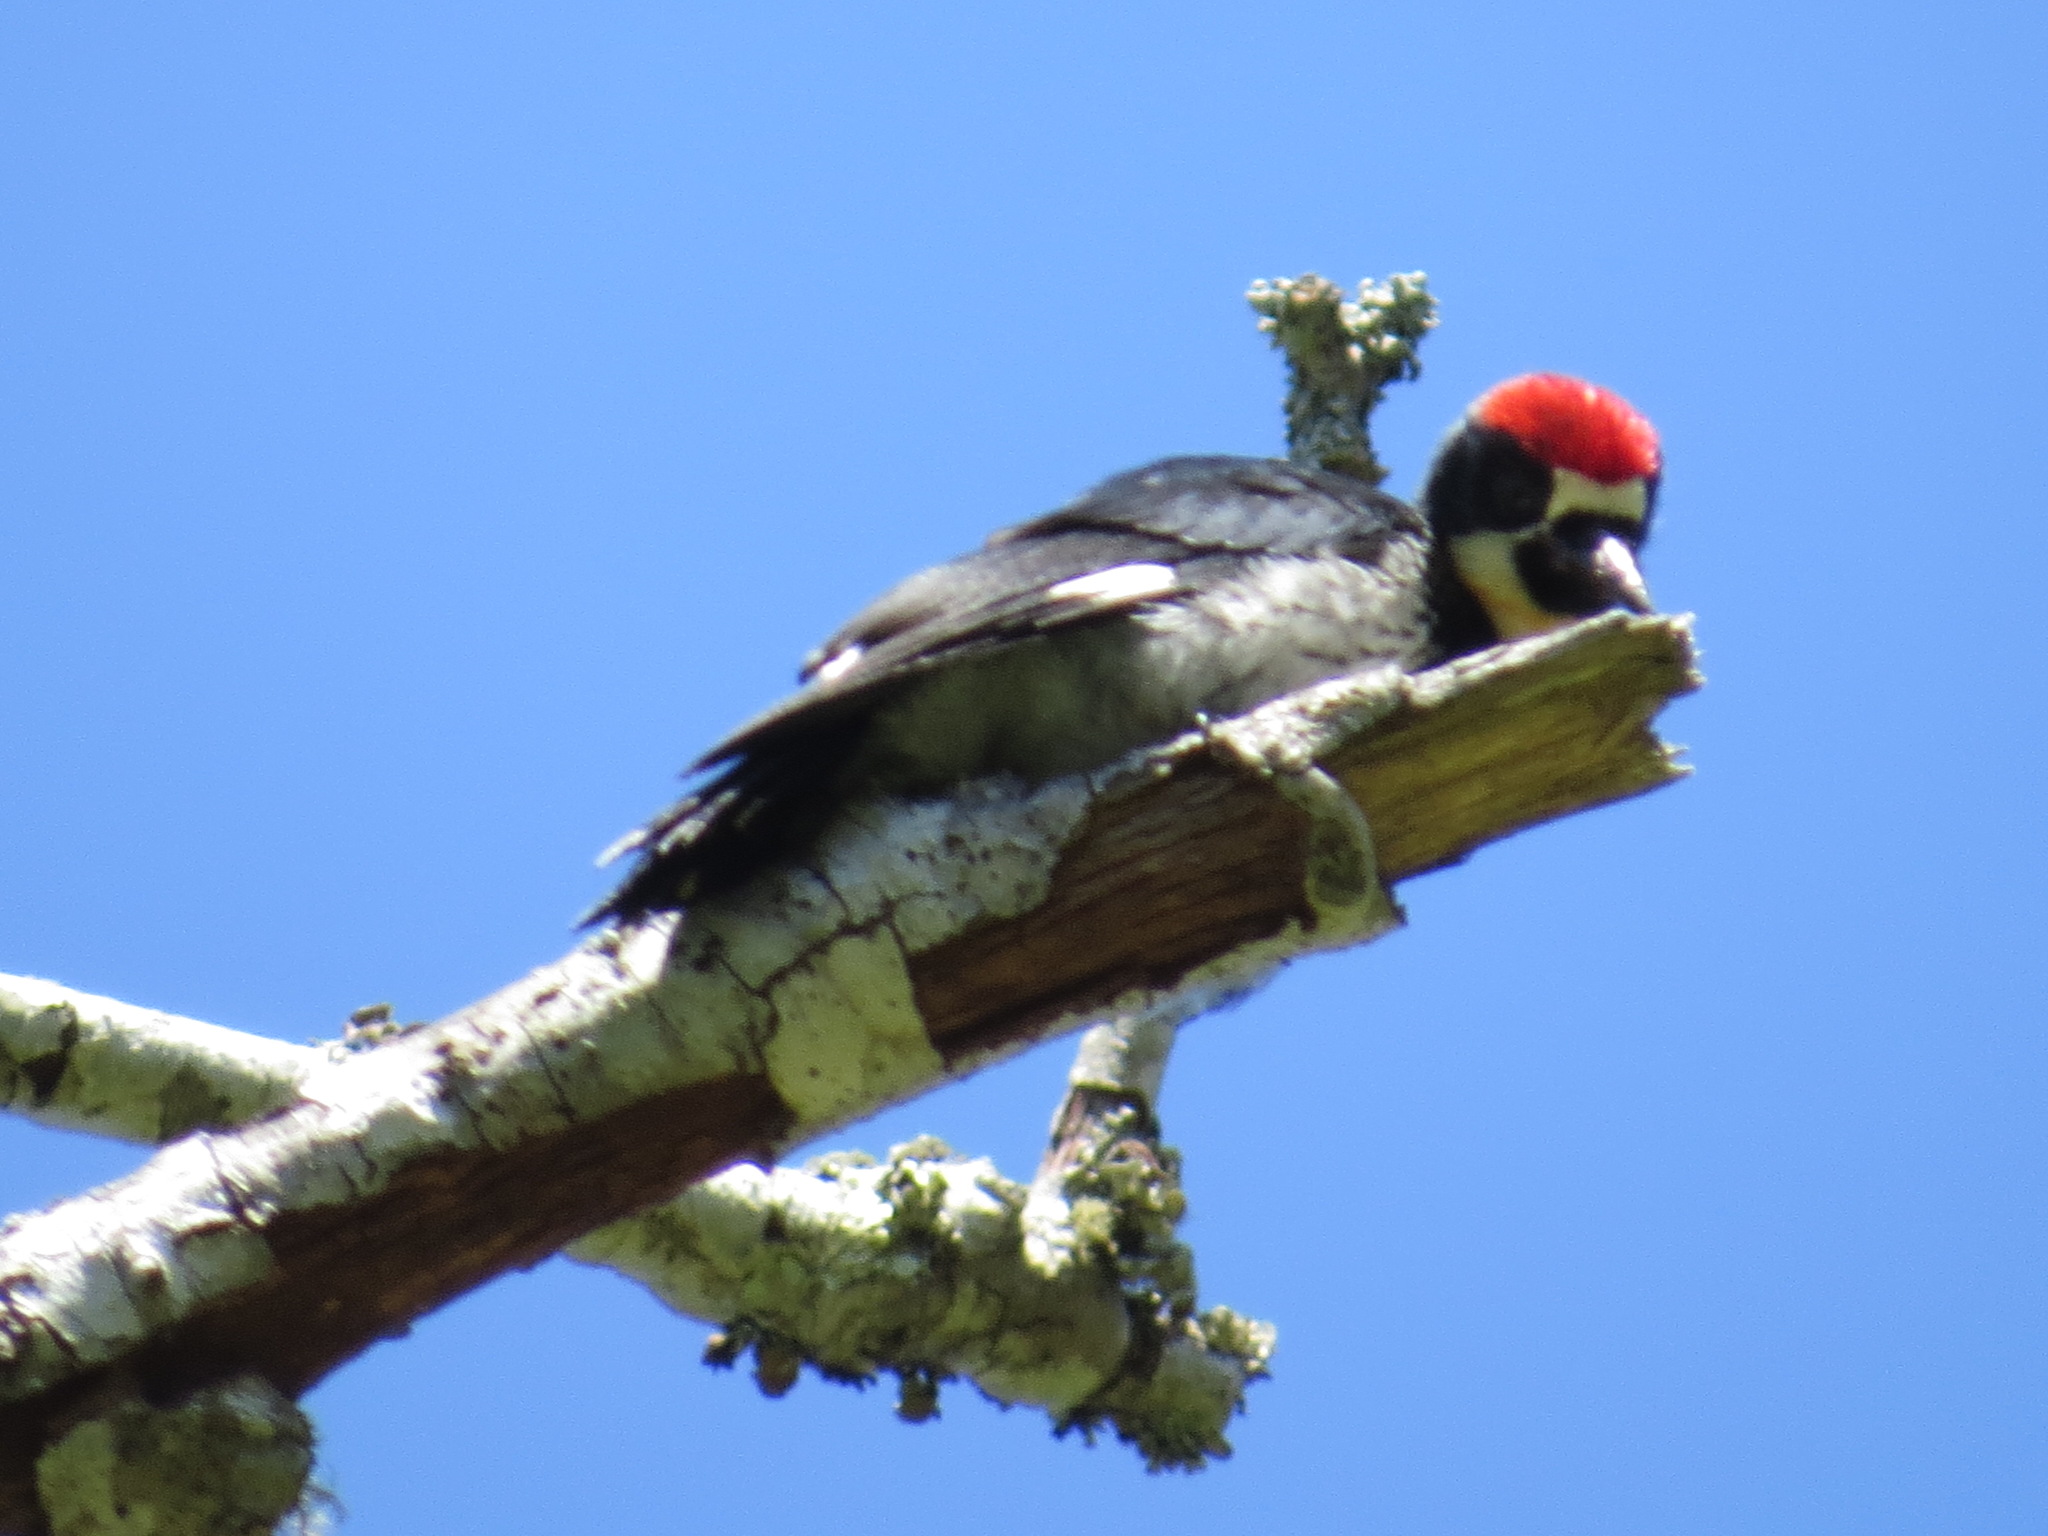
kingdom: Animalia
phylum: Chordata
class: Aves
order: Piciformes
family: Picidae
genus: Melanerpes
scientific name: Melanerpes formicivorus
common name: Acorn woodpecker
